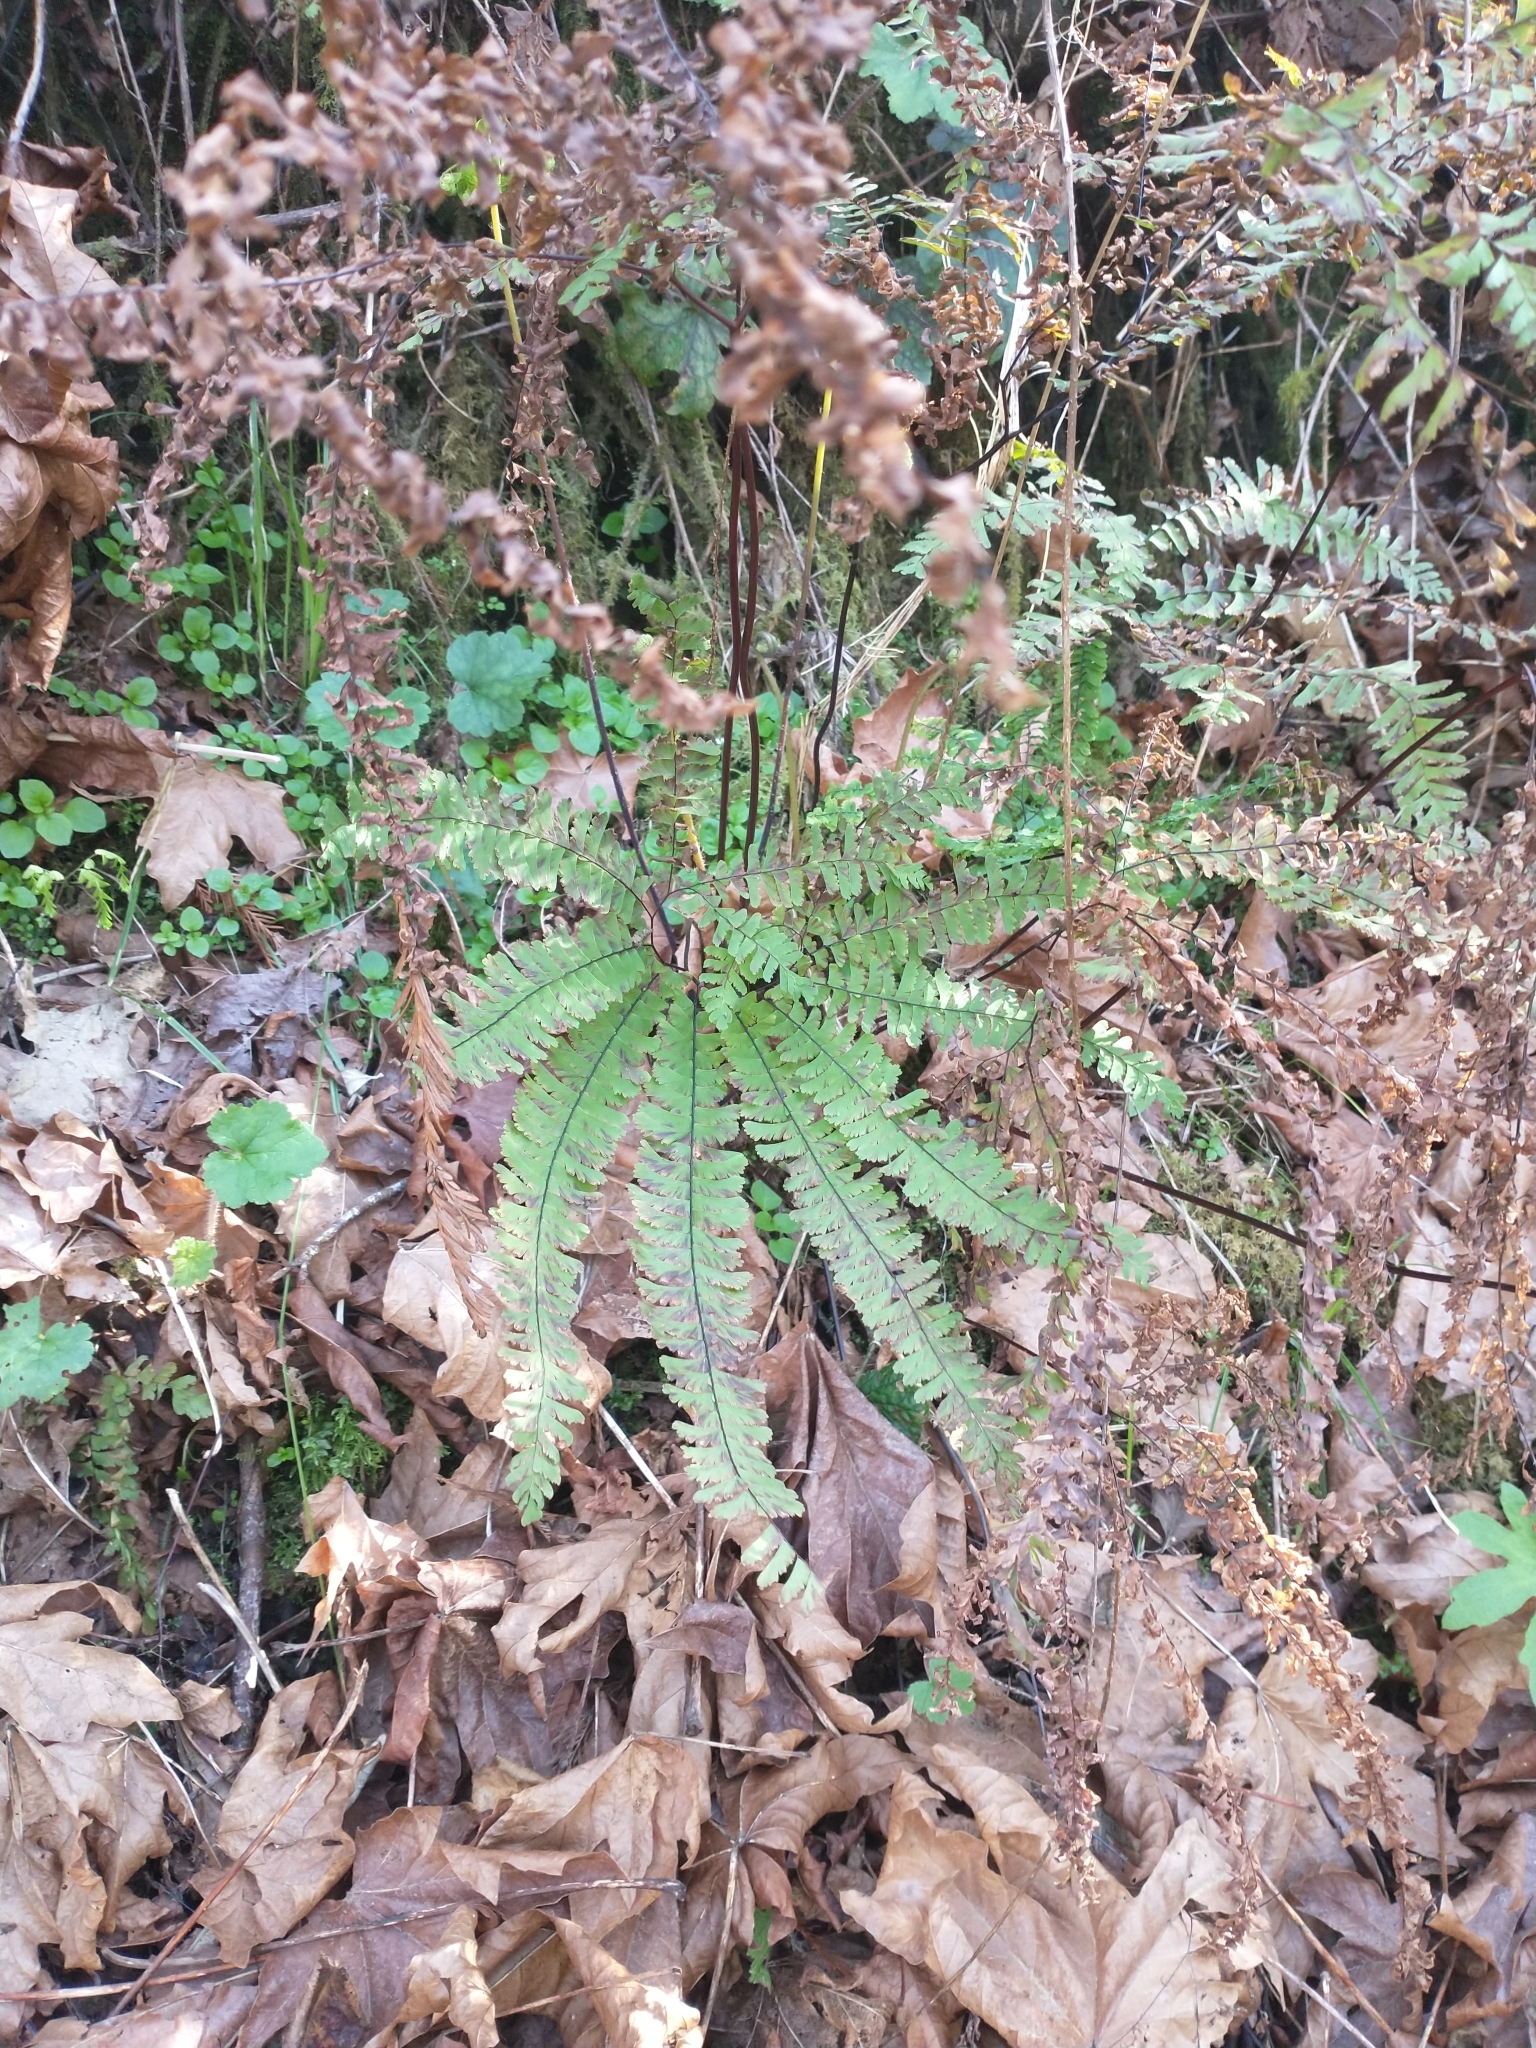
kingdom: Plantae
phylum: Tracheophyta
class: Polypodiopsida
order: Polypodiales
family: Pteridaceae
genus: Adiantum
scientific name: Adiantum aleuticum
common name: Aleutian maidenhair fern
